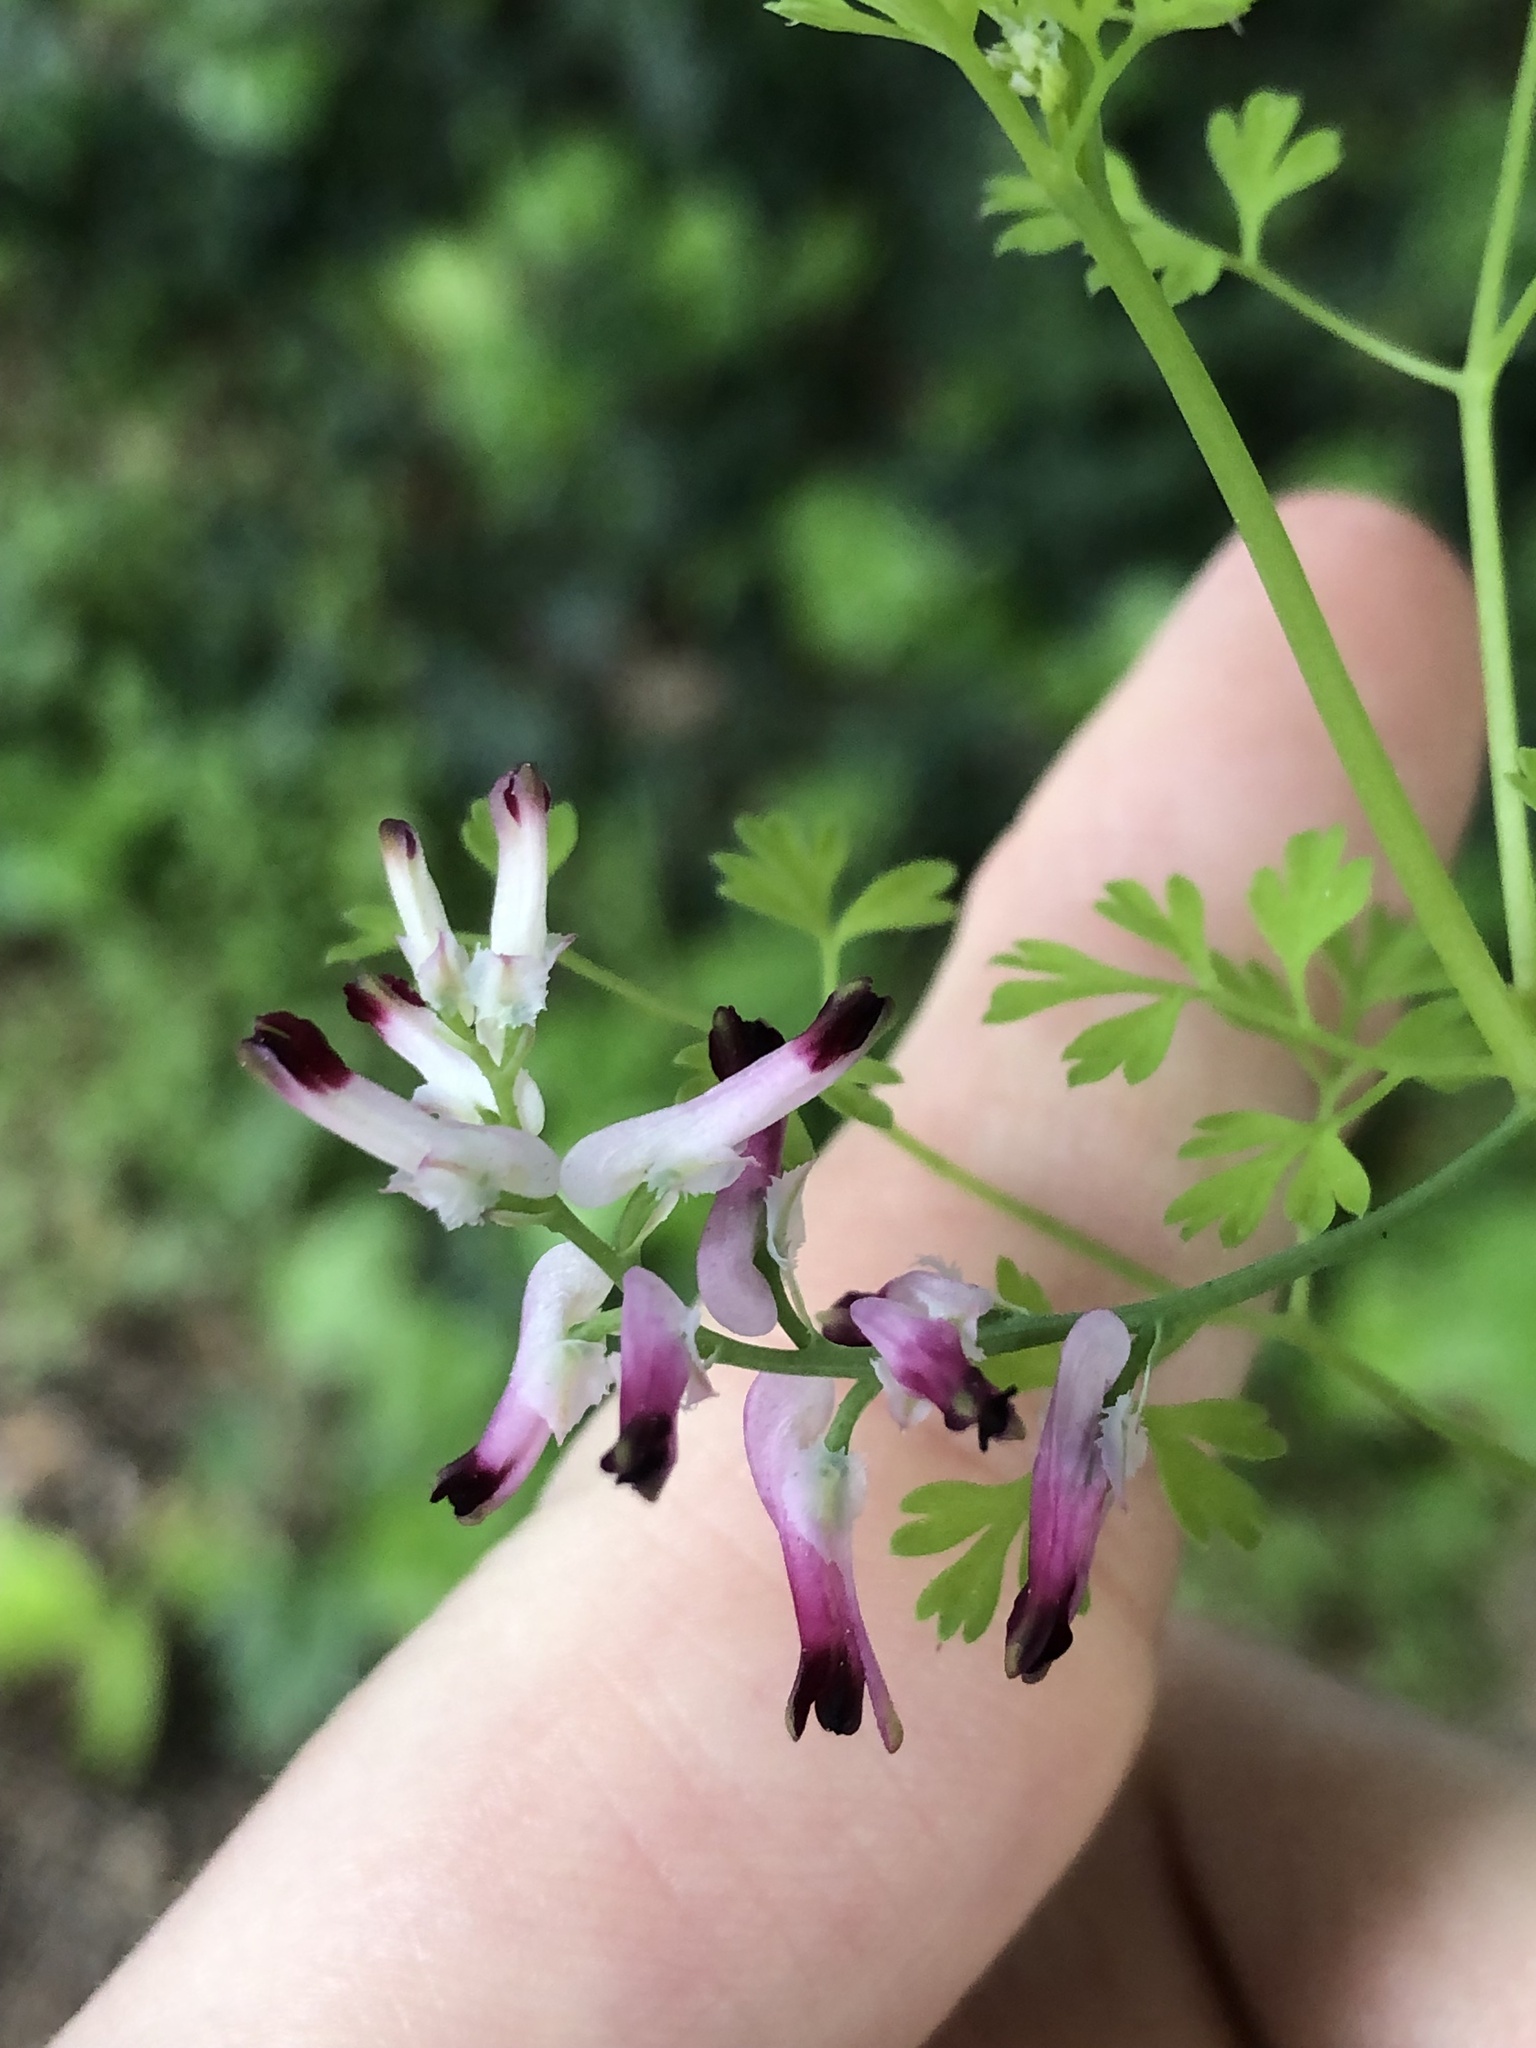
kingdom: Plantae
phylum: Tracheophyta
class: Magnoliopsida
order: Ranunculales
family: Papaveraceae
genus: Fumaria
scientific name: Fumaria muralis
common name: Common ramping-fumitory
